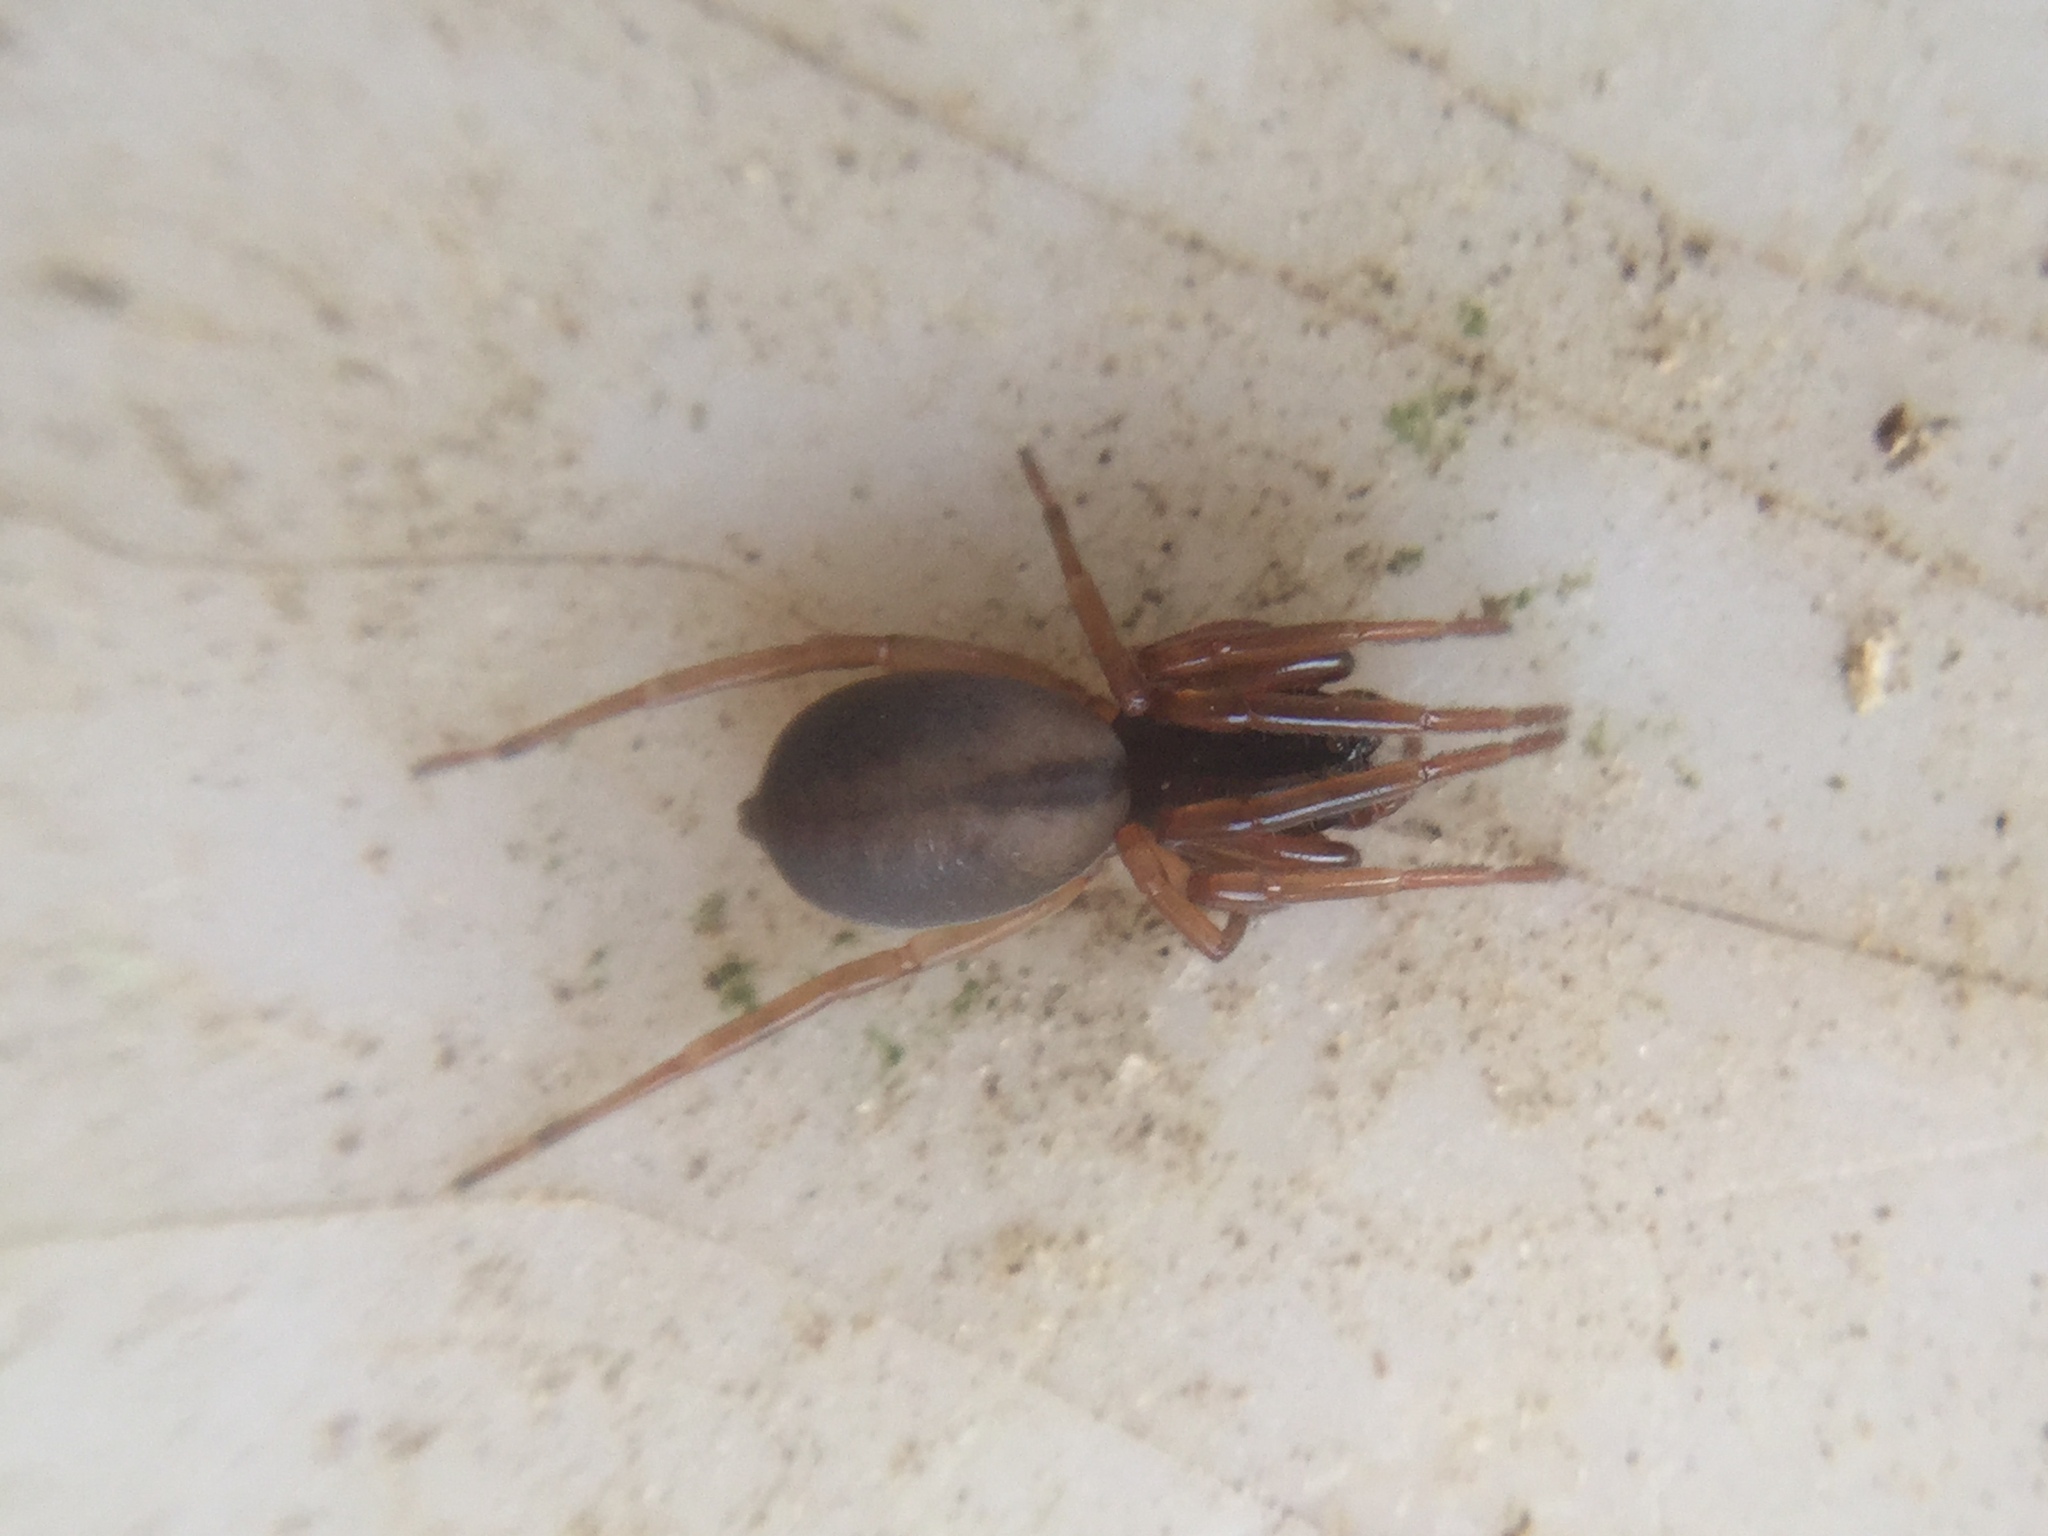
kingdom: Animalia
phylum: Arthropoda
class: Arachnida
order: Araneae
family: Trachelidae
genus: Meriola
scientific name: Meriola decepta
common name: Corinnid sac spiders
